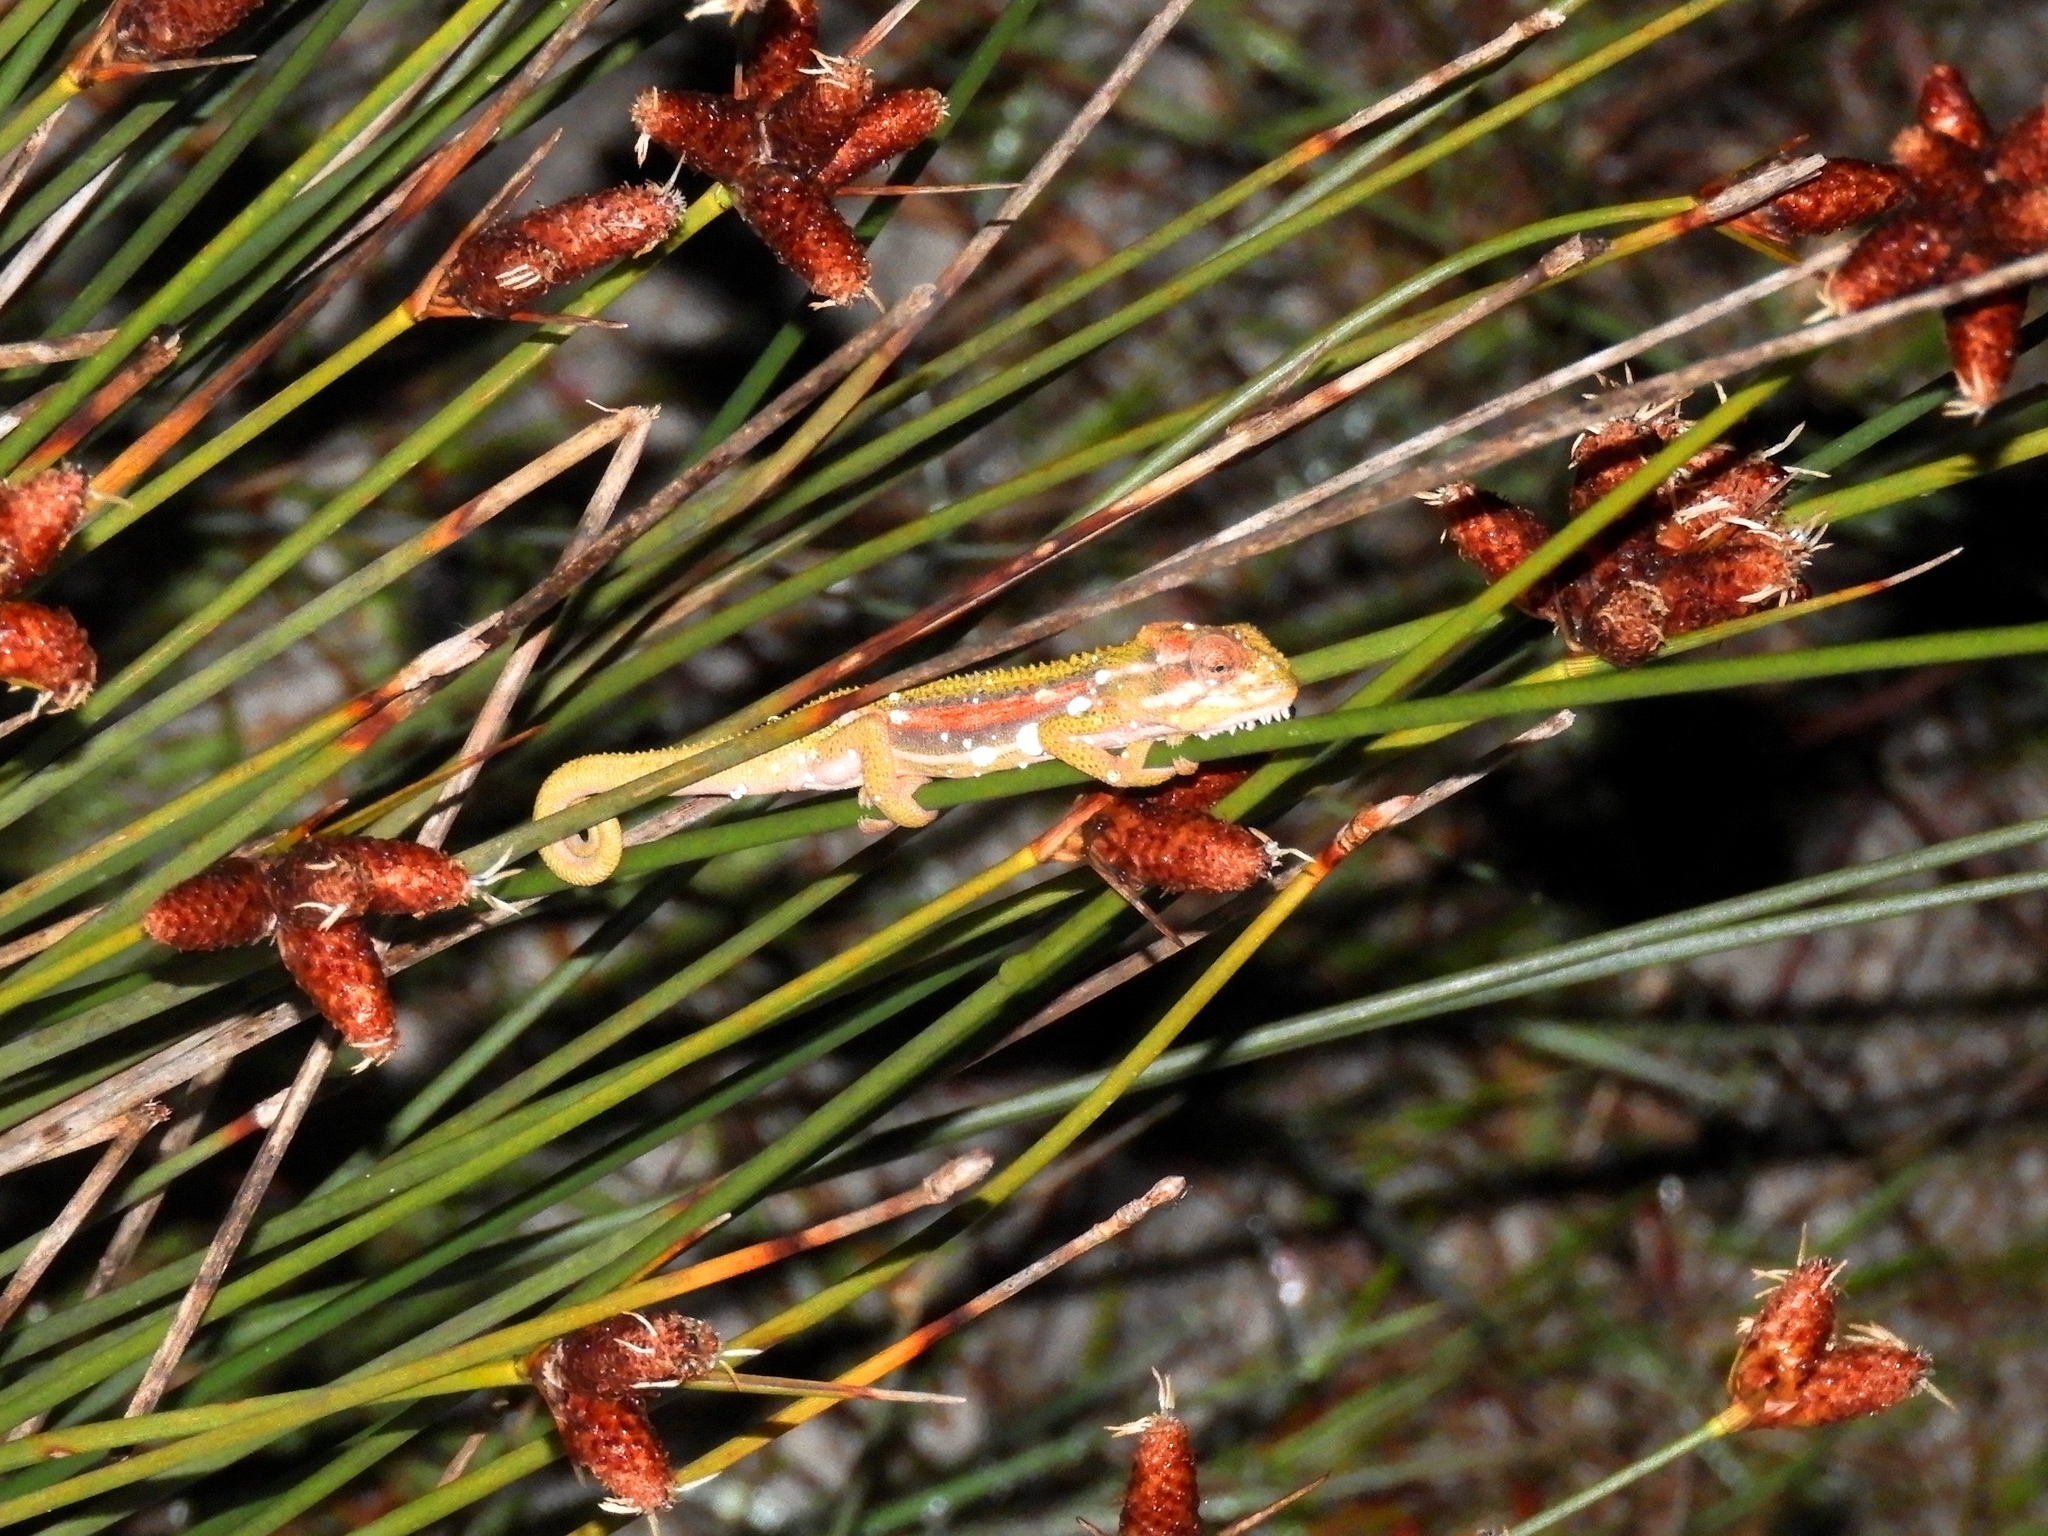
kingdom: Animalia
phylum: Chordata
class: Squamata
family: Chamaeleonidae
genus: Bradypodion
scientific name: Bradypodion pumilum
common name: Cape dwarf chameleon
